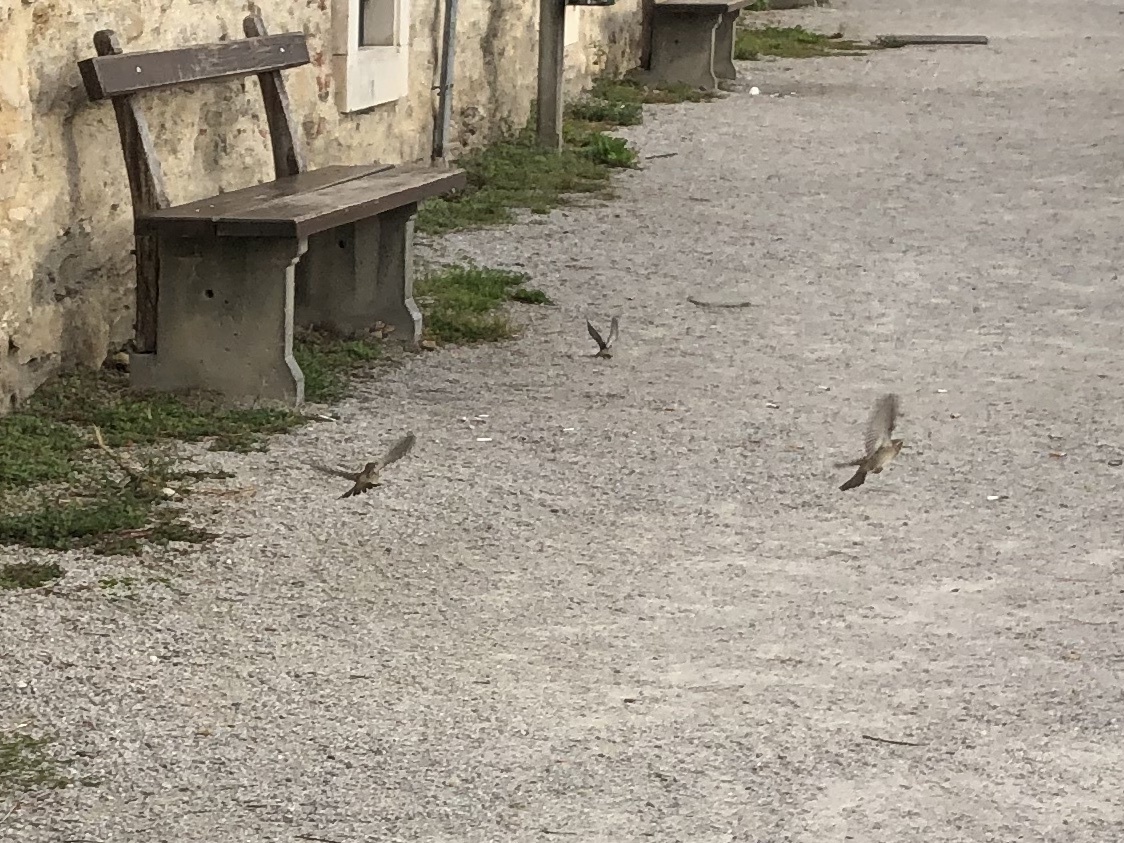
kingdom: Animalia
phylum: Chordata
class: Aves
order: Passeriformes
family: Passeridae
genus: Passer
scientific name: Passer domesticus
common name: House sparrow
